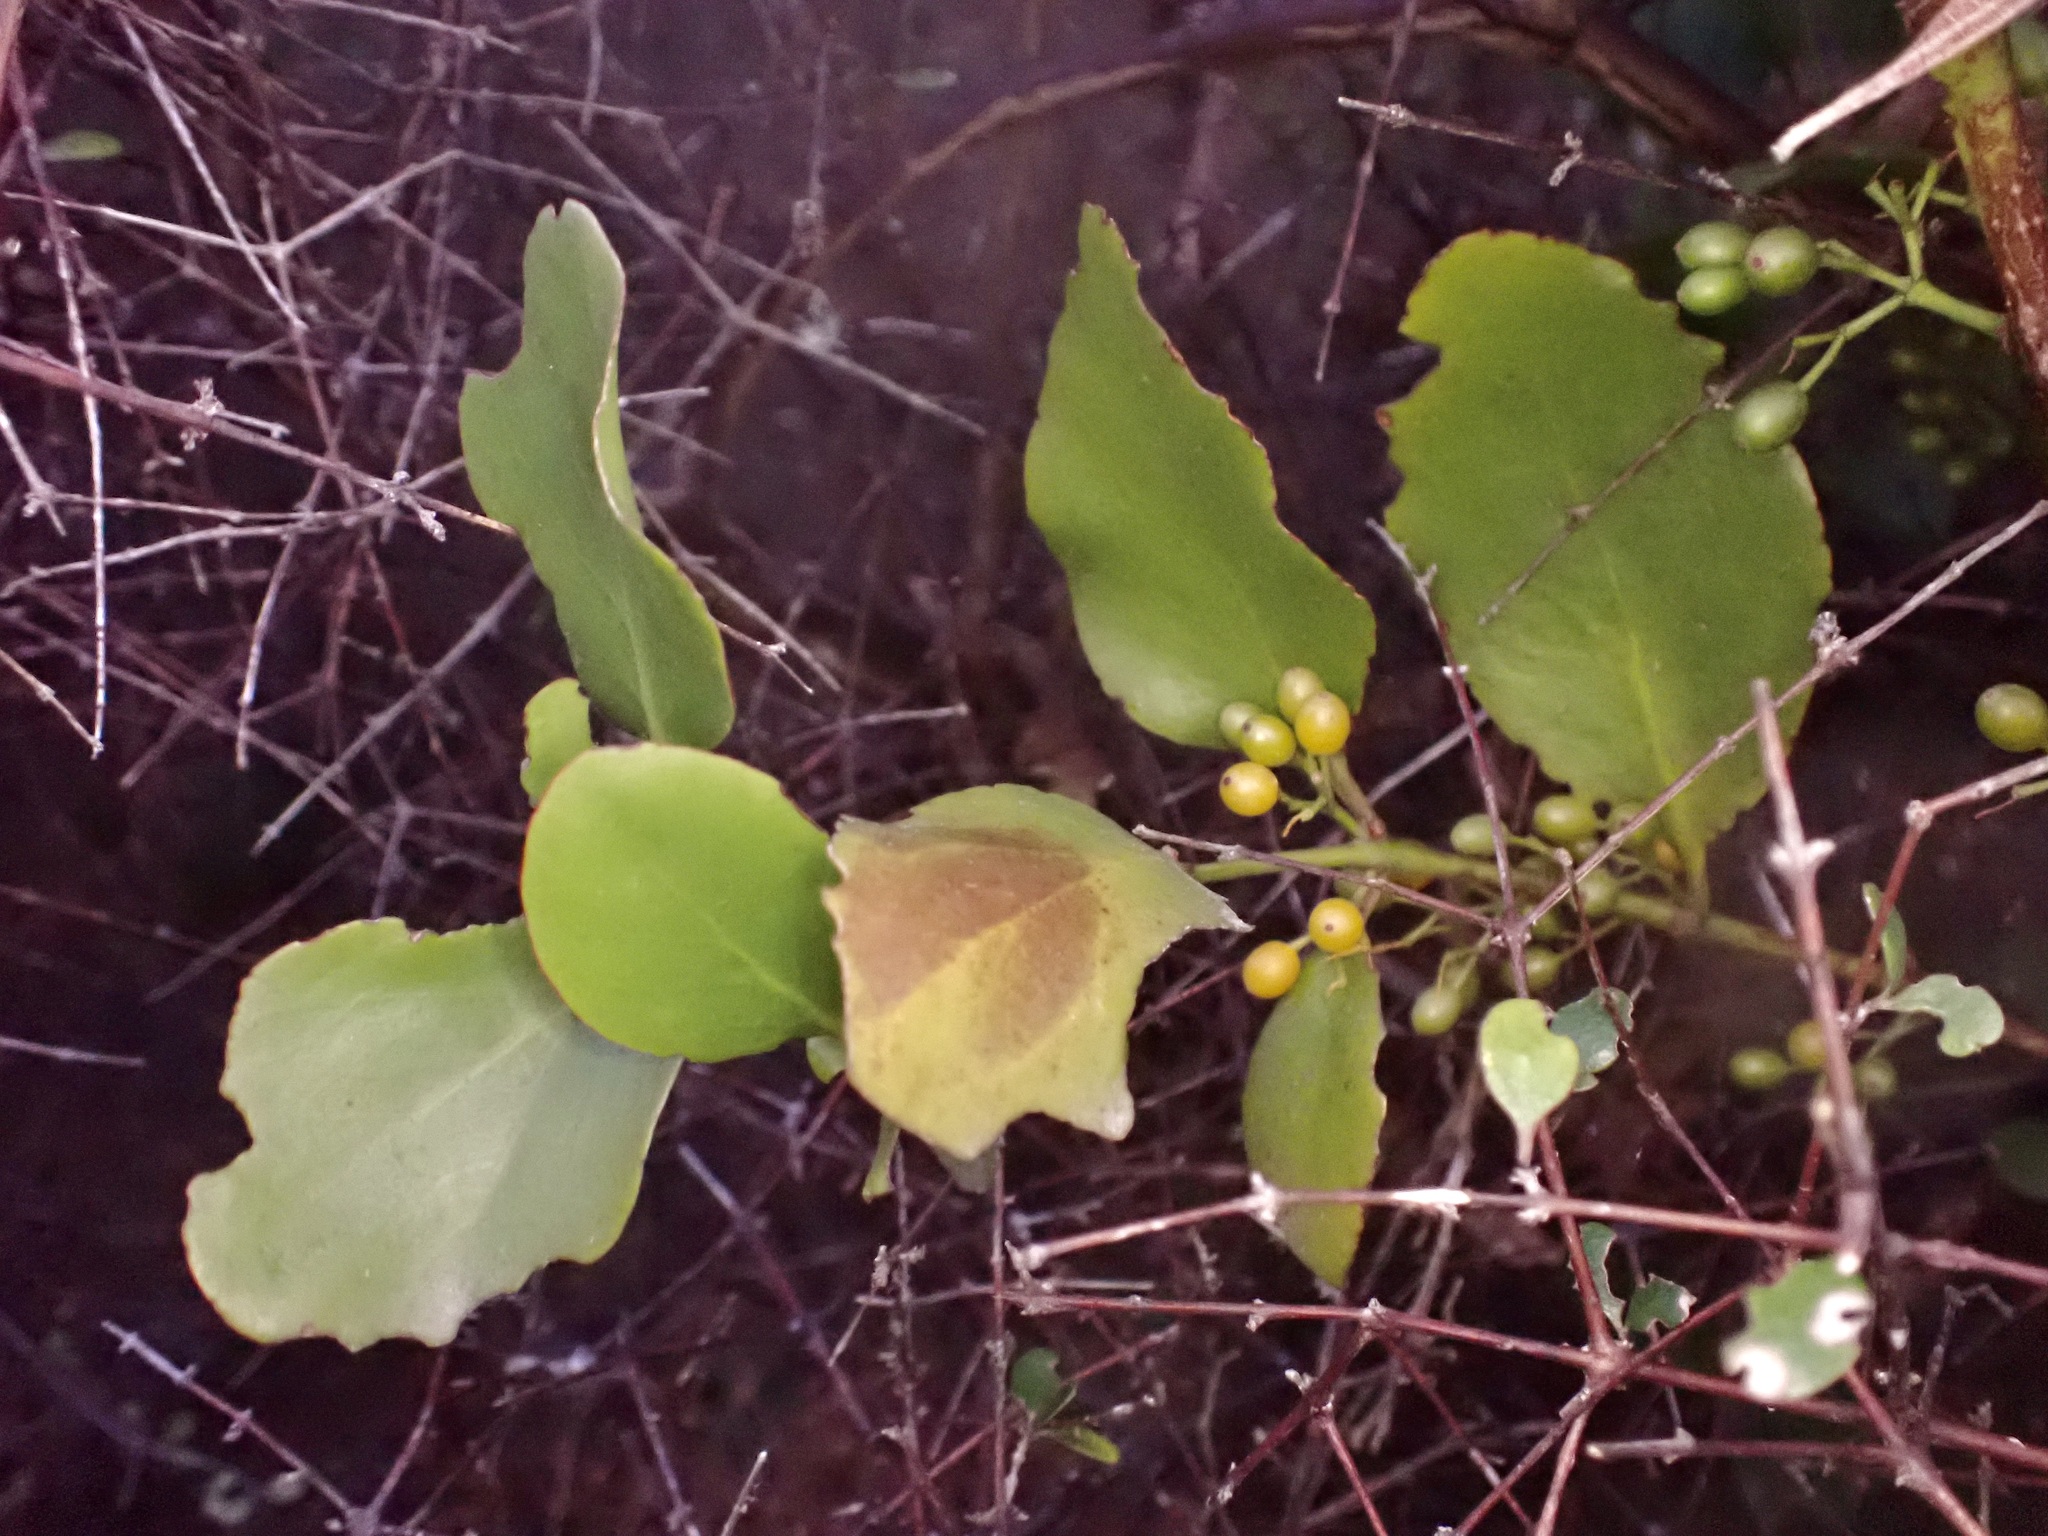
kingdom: Plantae
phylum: Tracheophyta
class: Magnoliopsida
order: Santalales
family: Loranthaceae
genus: Ileostylus
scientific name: Ileostylus micranthus
